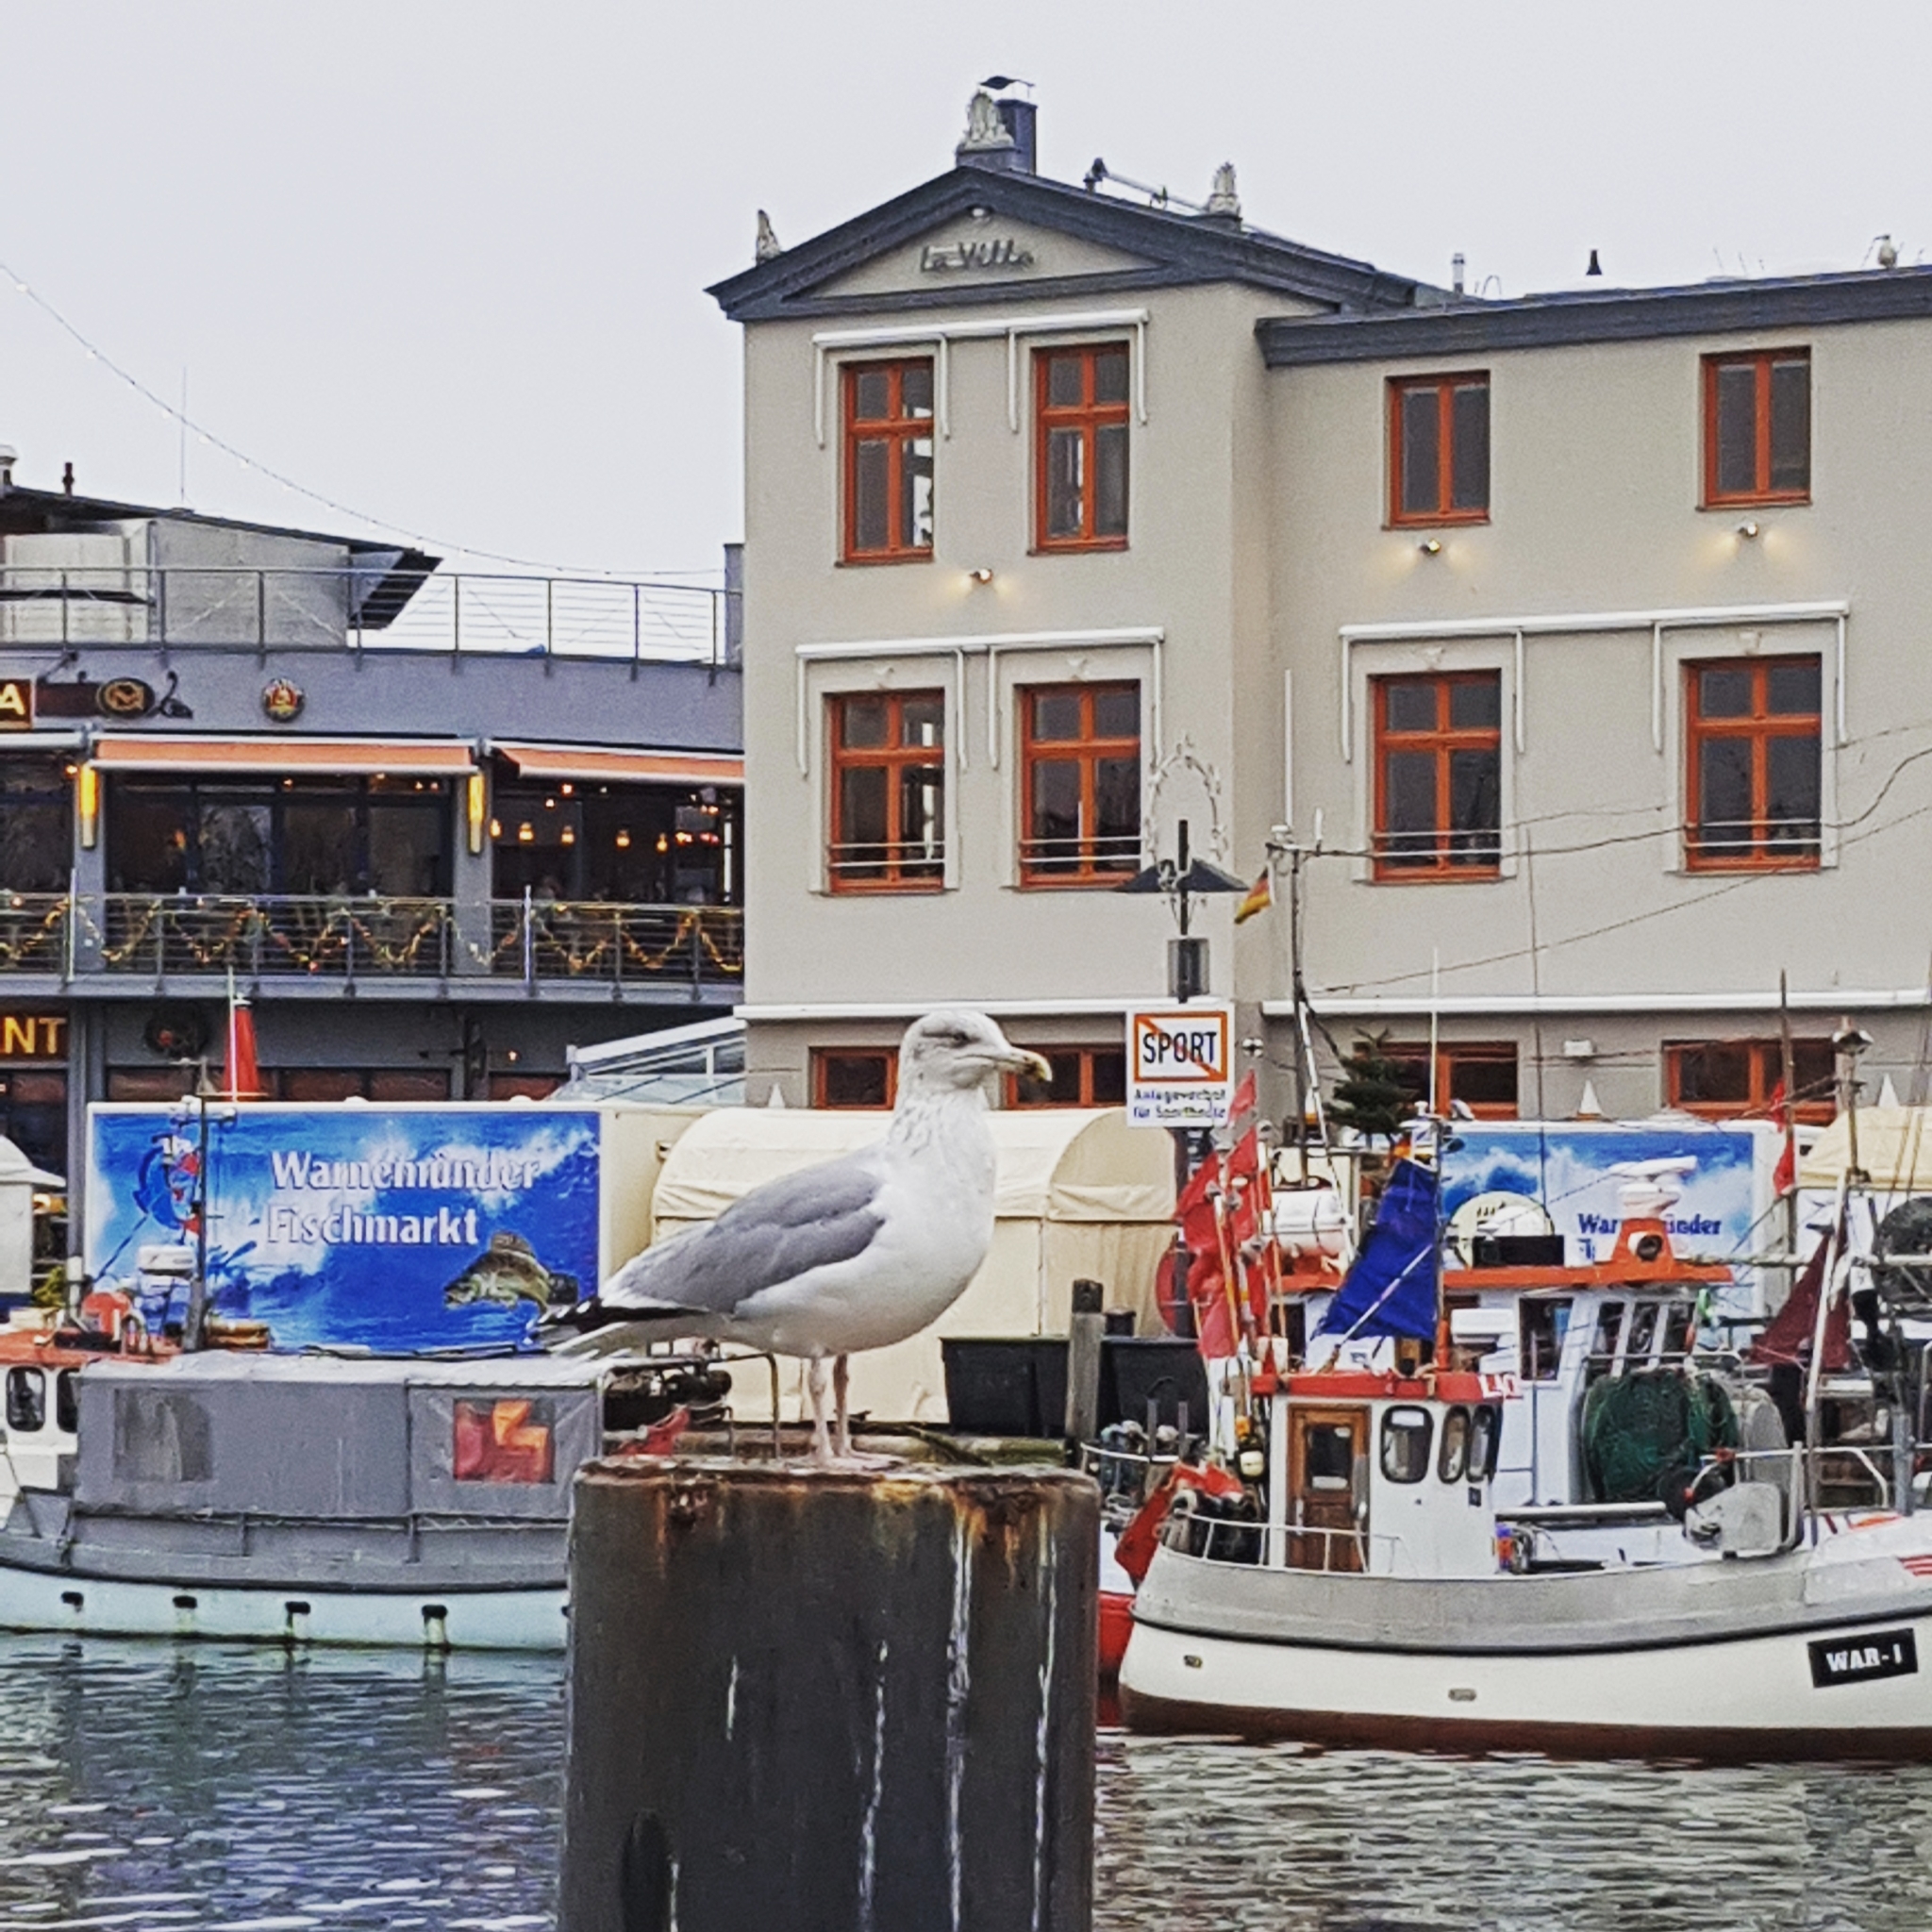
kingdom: Animalia
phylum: Chordata
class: Aves
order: Charadriiformes
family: Laridae
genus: Larus
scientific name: Larus argentatus
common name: Herring gull
